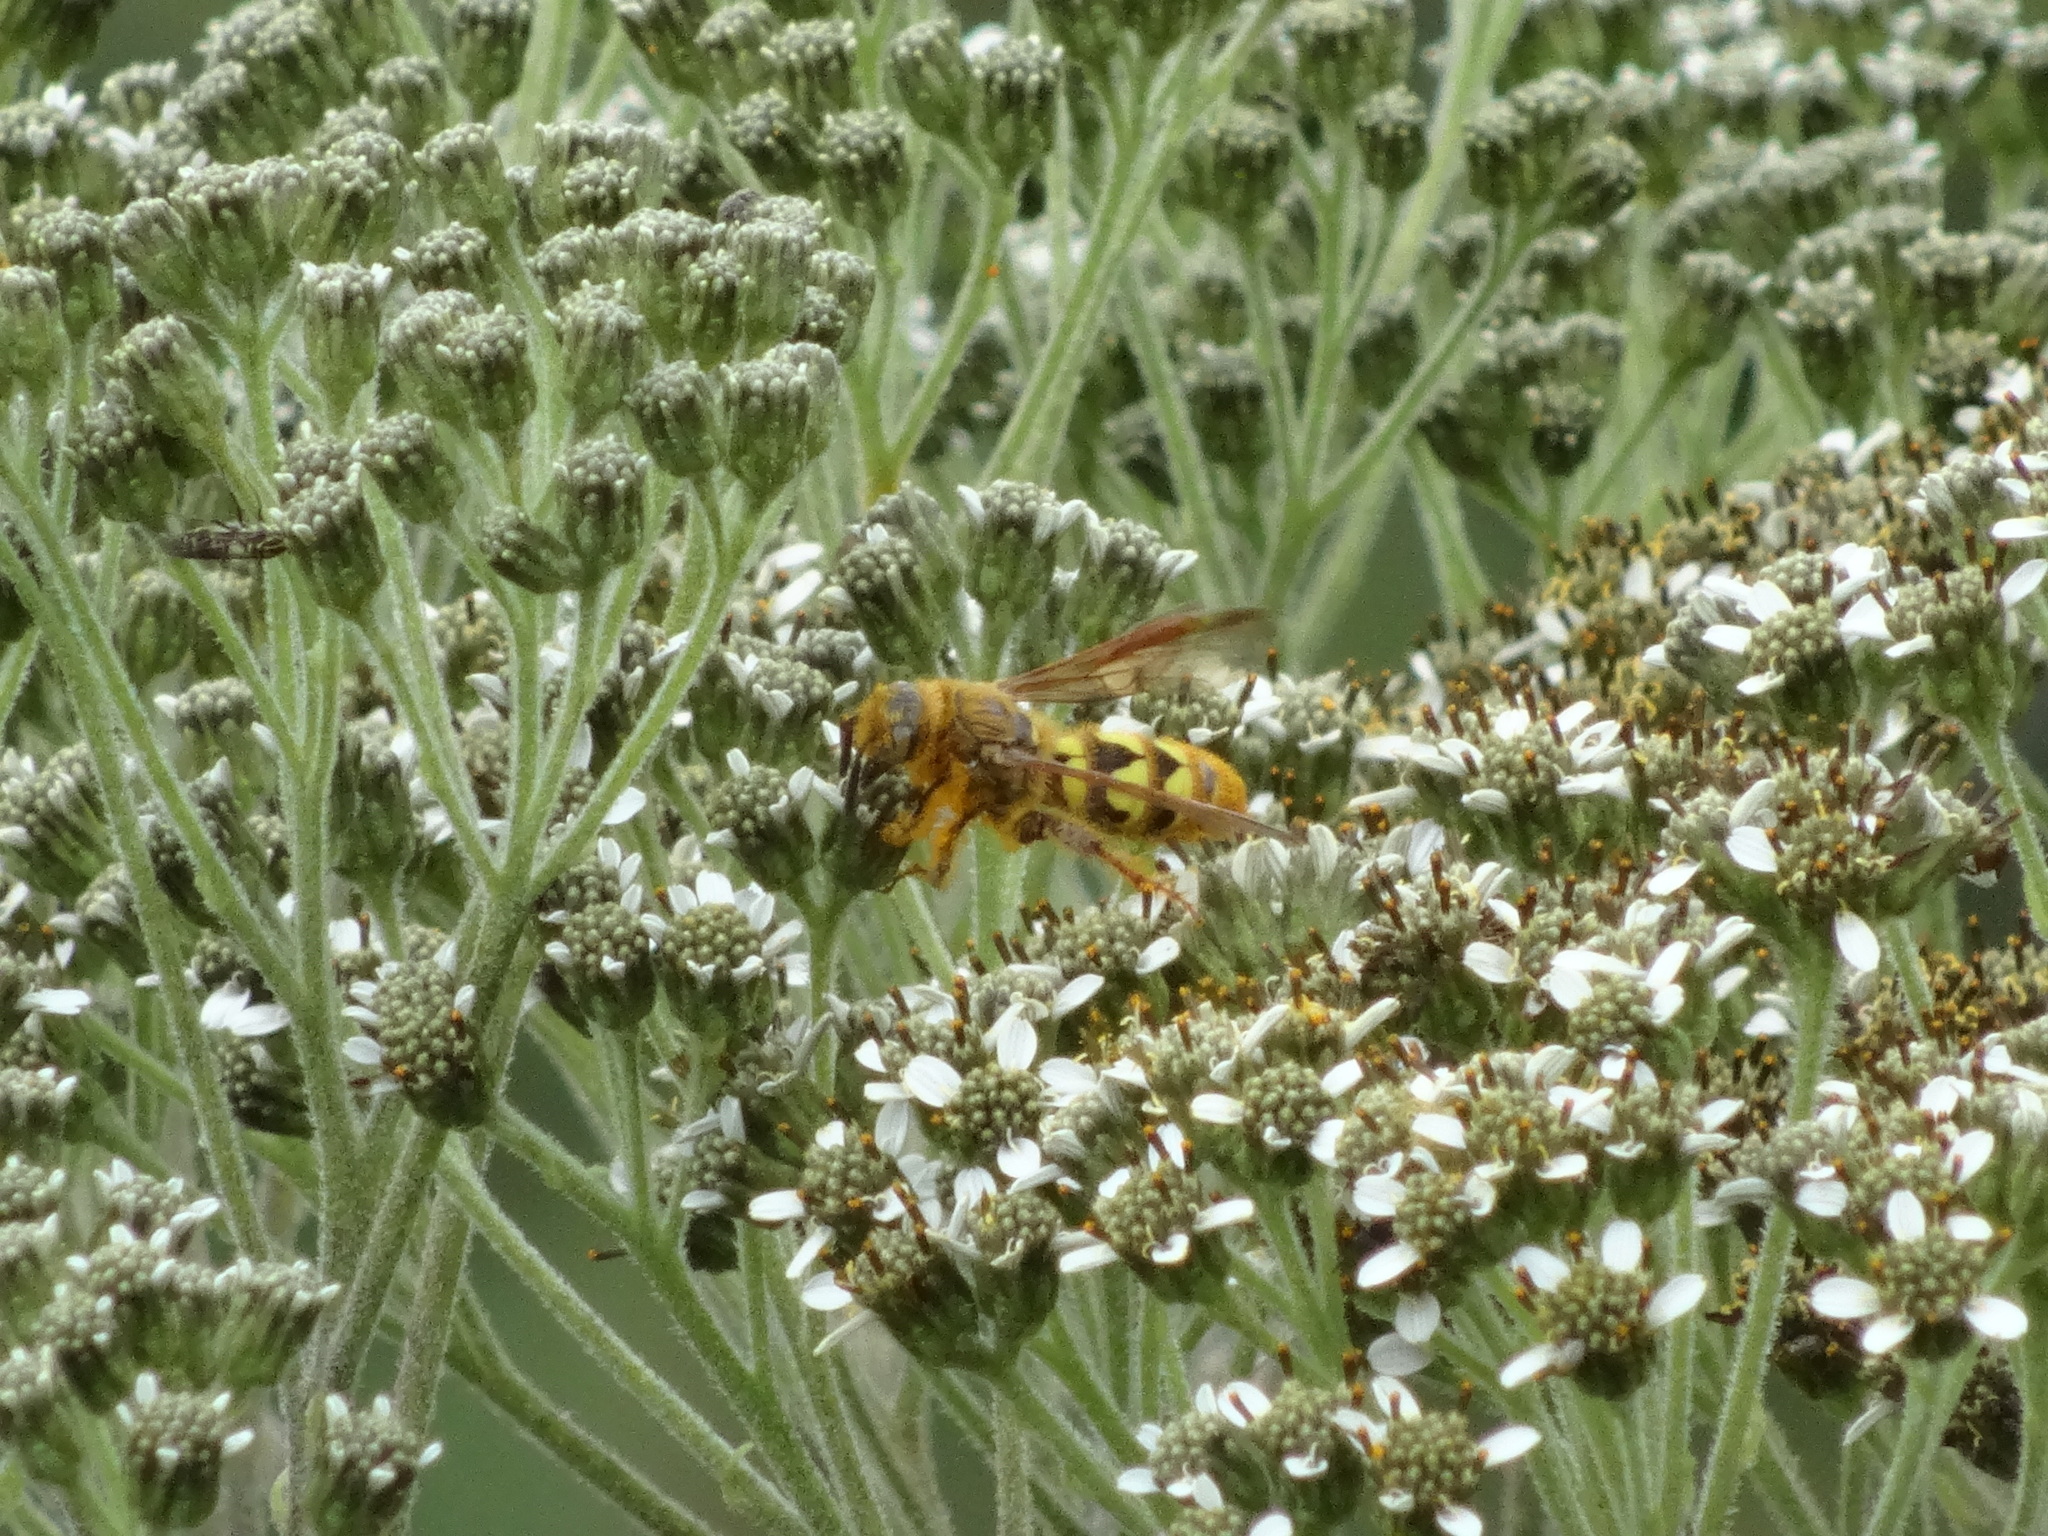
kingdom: Animalia
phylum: Arthropoda
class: Insecta
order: Hymenoptera
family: Scoliidae
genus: Xanthocampsomeris
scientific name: Xanthocampsomeris hesterae
